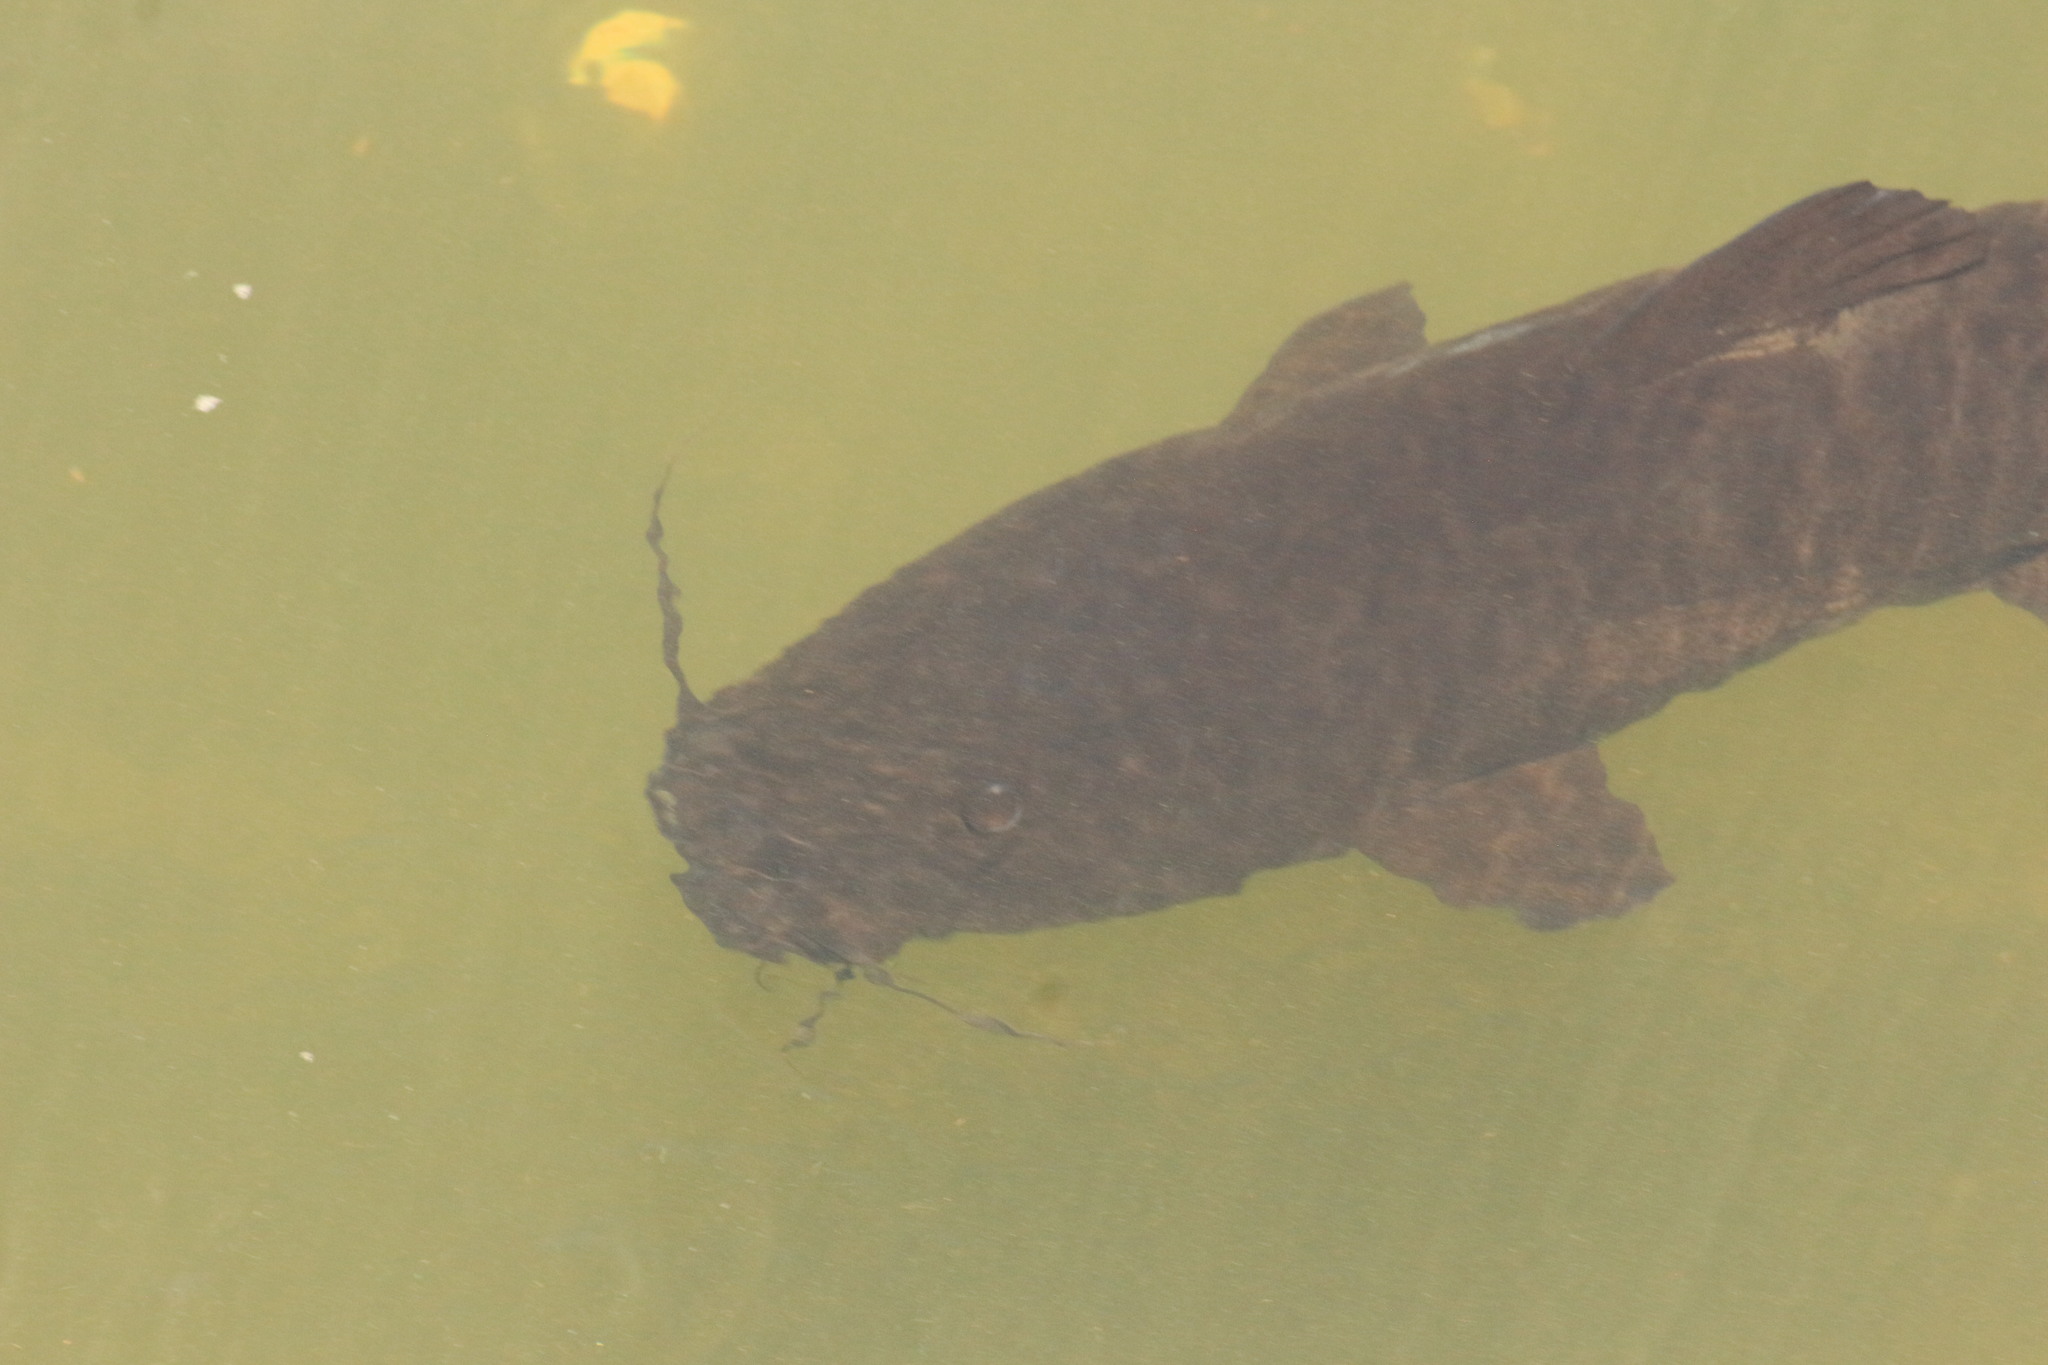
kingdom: Animalia
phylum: Chordata
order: Siluriformes
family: Pimelodidae
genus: Steindachneridion
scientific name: Steindachneridion melanodermatum
